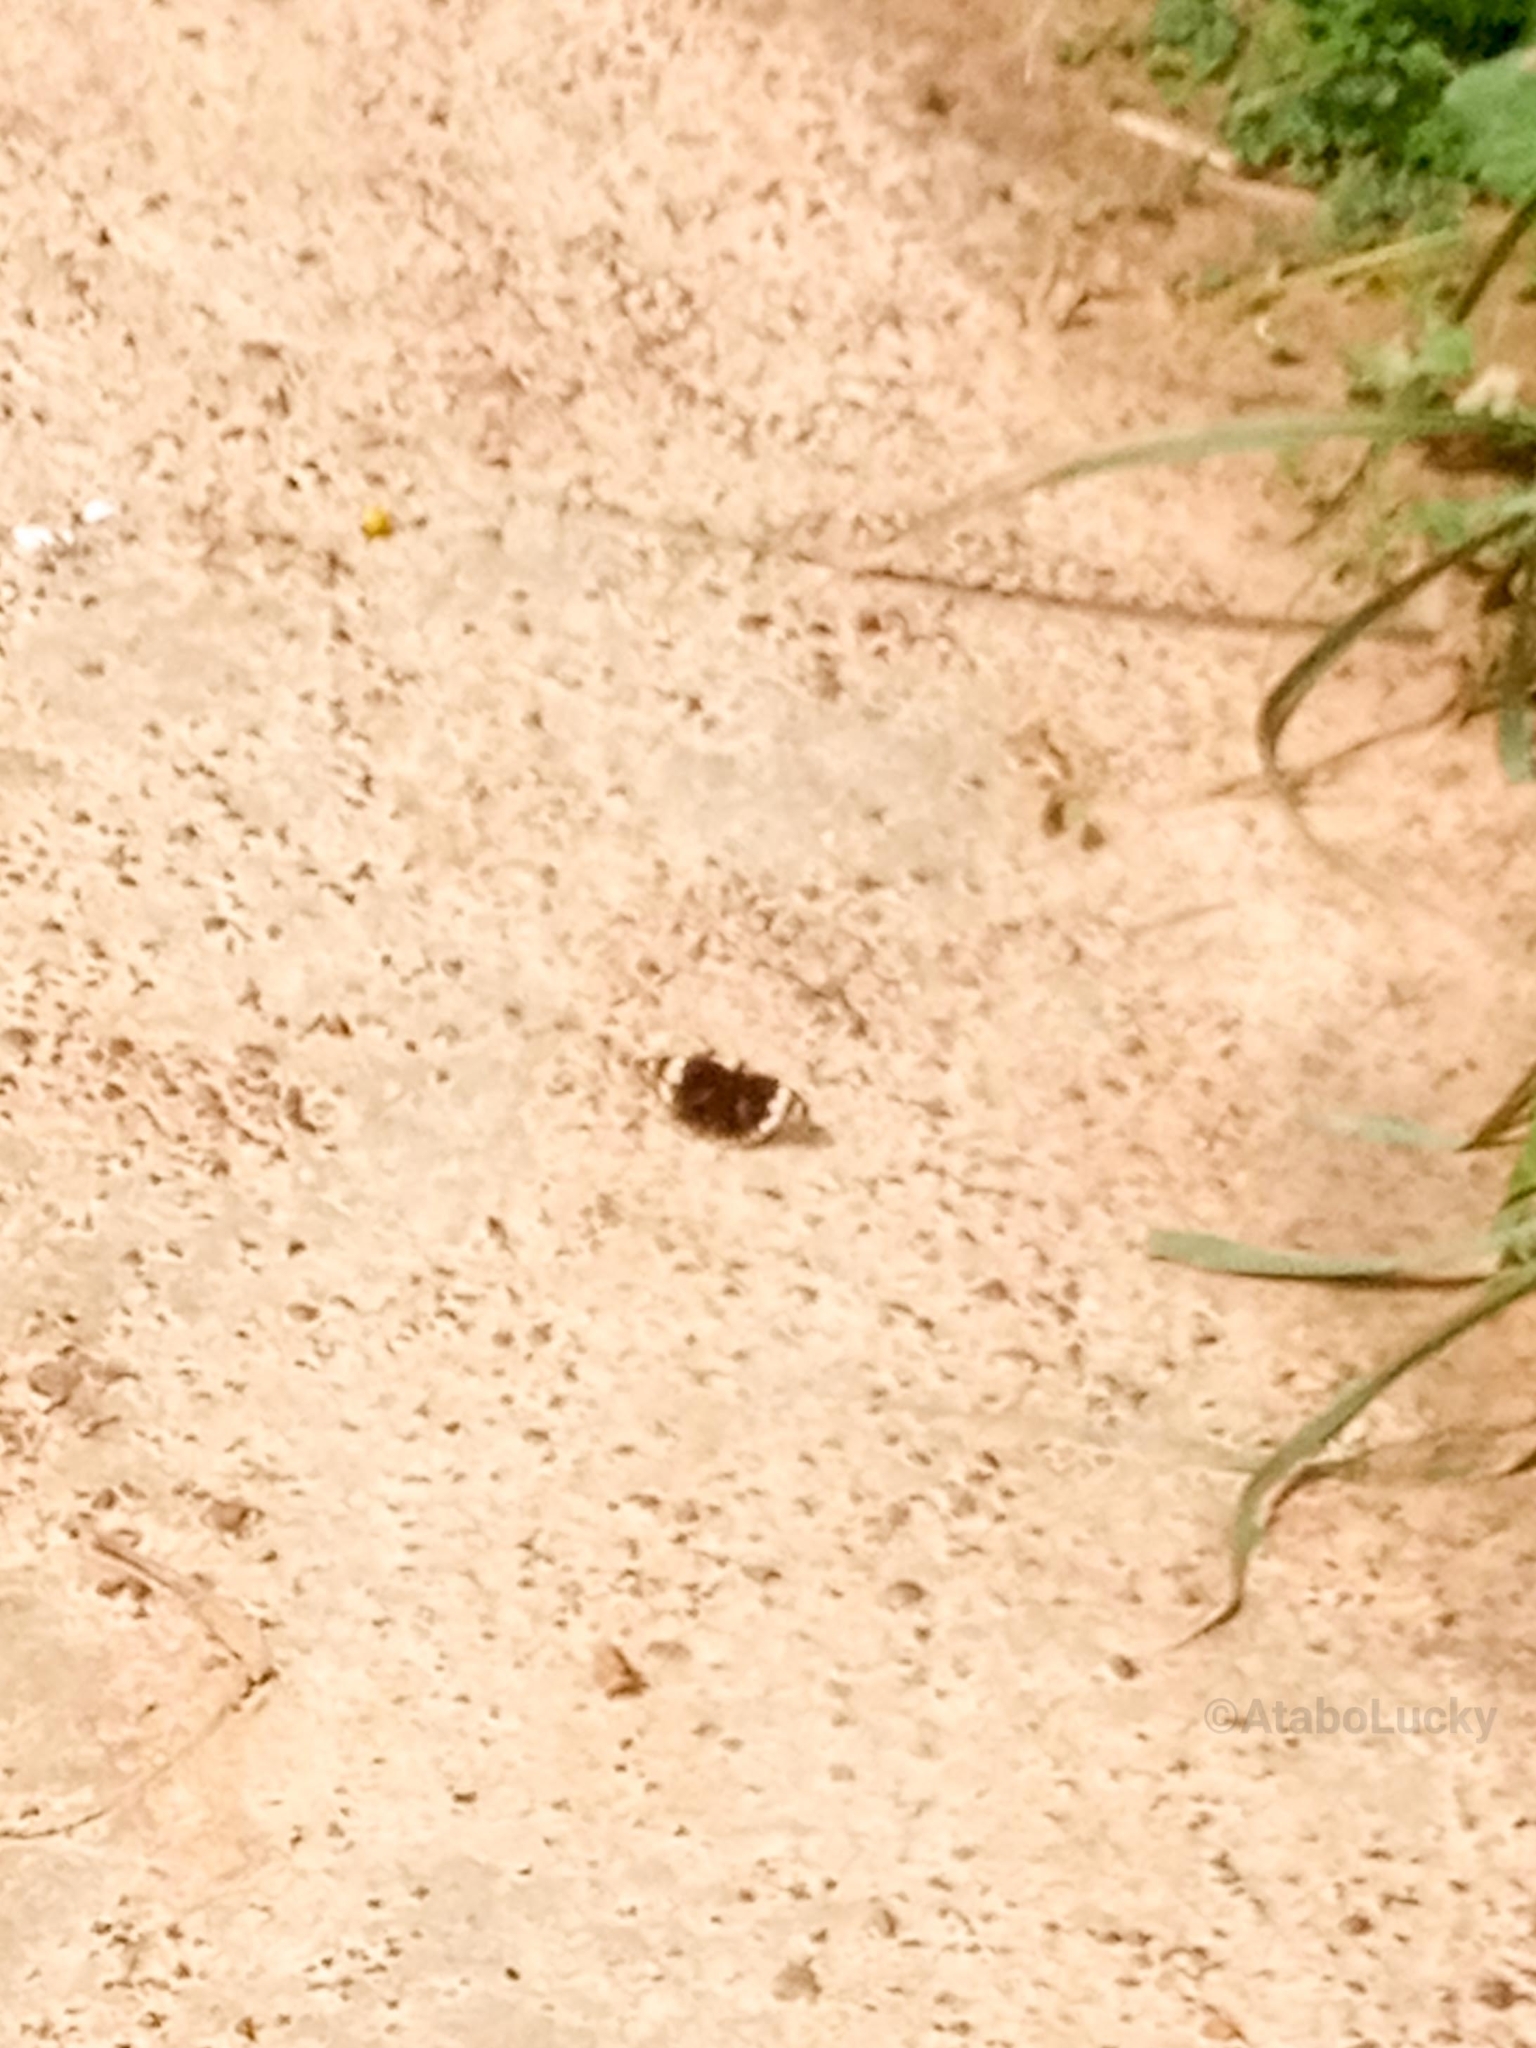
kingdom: Animalia
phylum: Arthropoda
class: Insecta
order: Lepidoptera
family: Nymphalidae
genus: Junonia
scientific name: Junonia oenone
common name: Dark blue pansy
